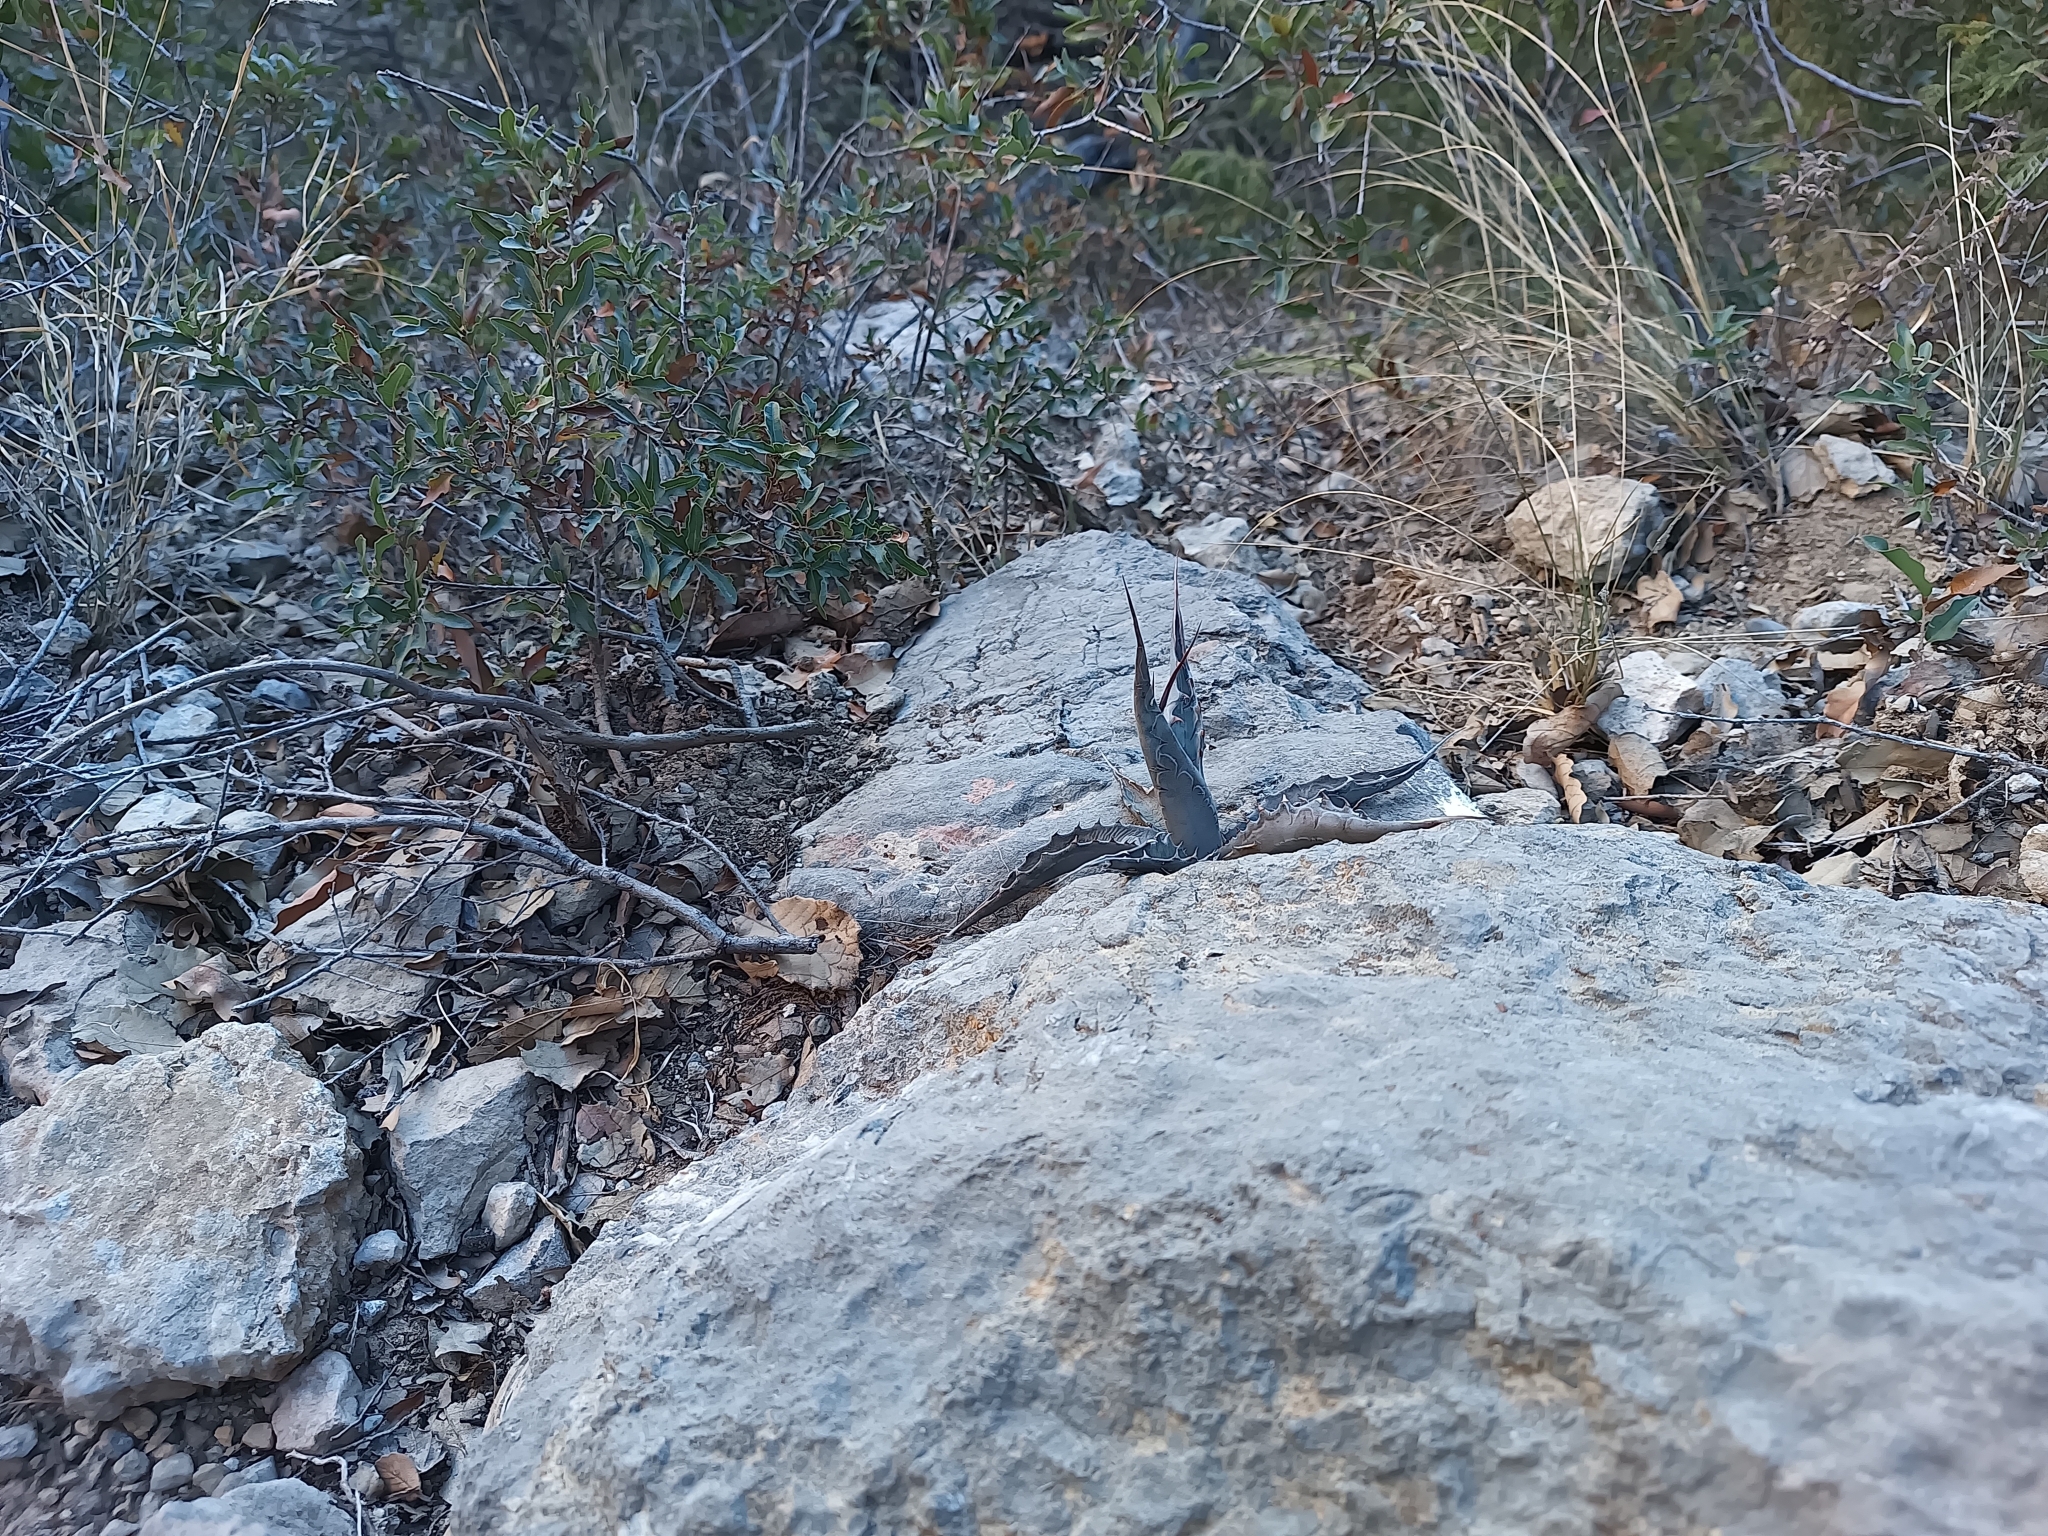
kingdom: Plantae
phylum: Tracheophyta
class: Liliopsida
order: Asparagales
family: Asparagaceae
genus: Agave
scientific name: Agave asperrima
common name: Rough agave
